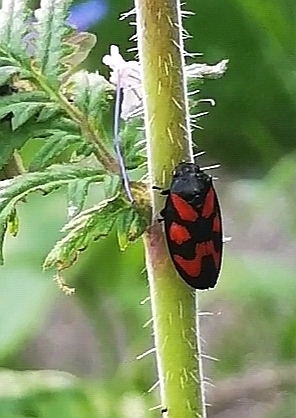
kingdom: Animalia
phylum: Arthropoda
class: Insecta
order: Hemiptera
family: Cercopidae
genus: Cercopis
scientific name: Cercopis vulnerata
